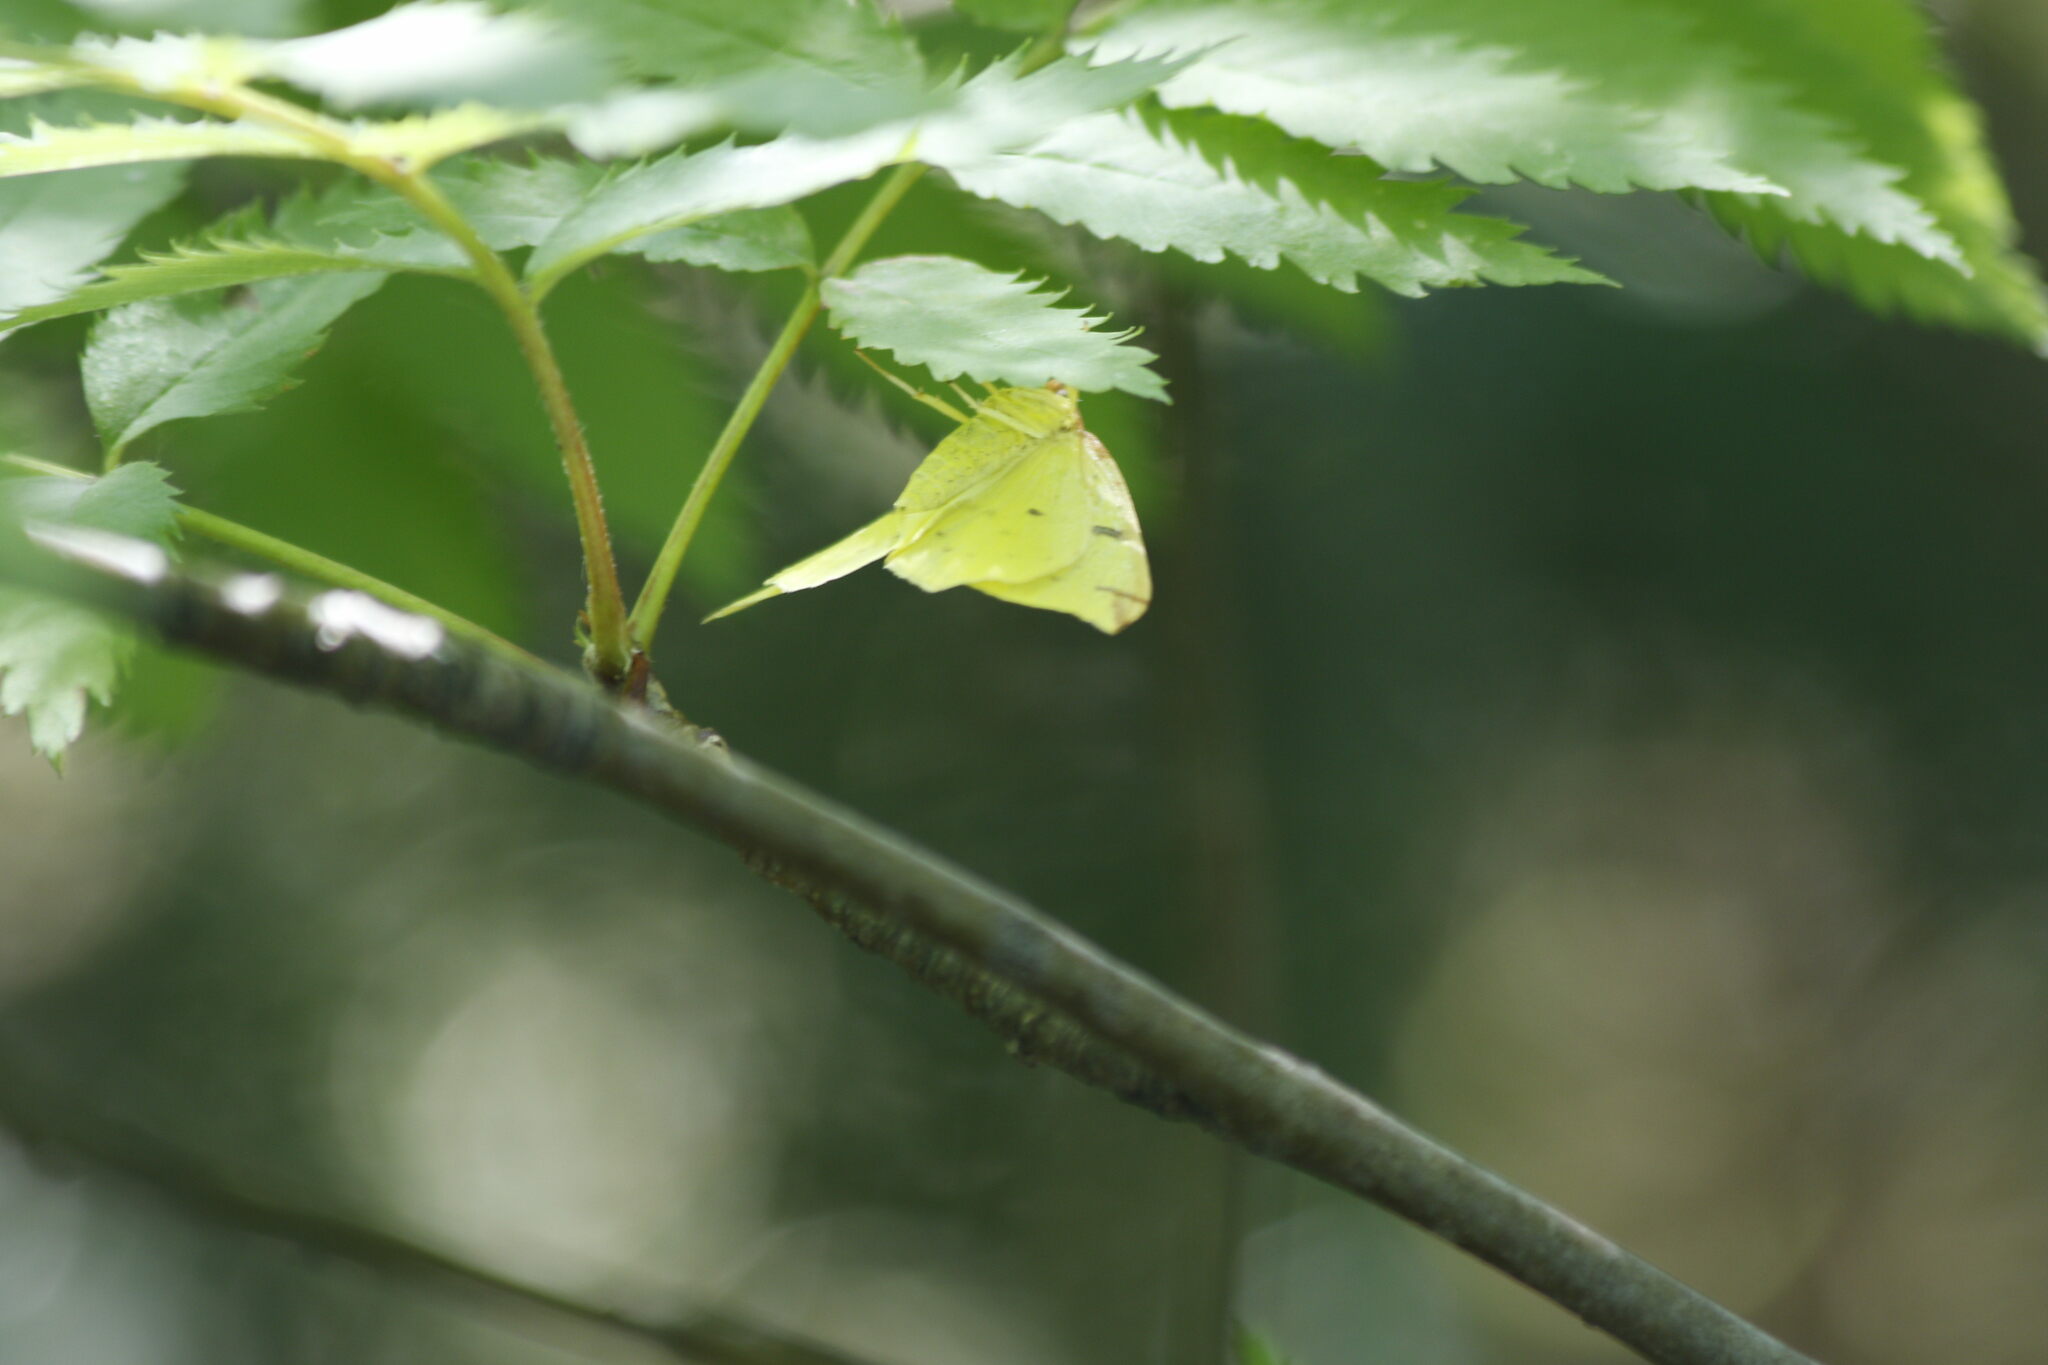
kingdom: Animalia
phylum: Arthropoda
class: Insecta
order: Lepidoptera
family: Geometridae
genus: Opisthograptis
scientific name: Opisthograptis luteolata
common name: Brimstone moth
